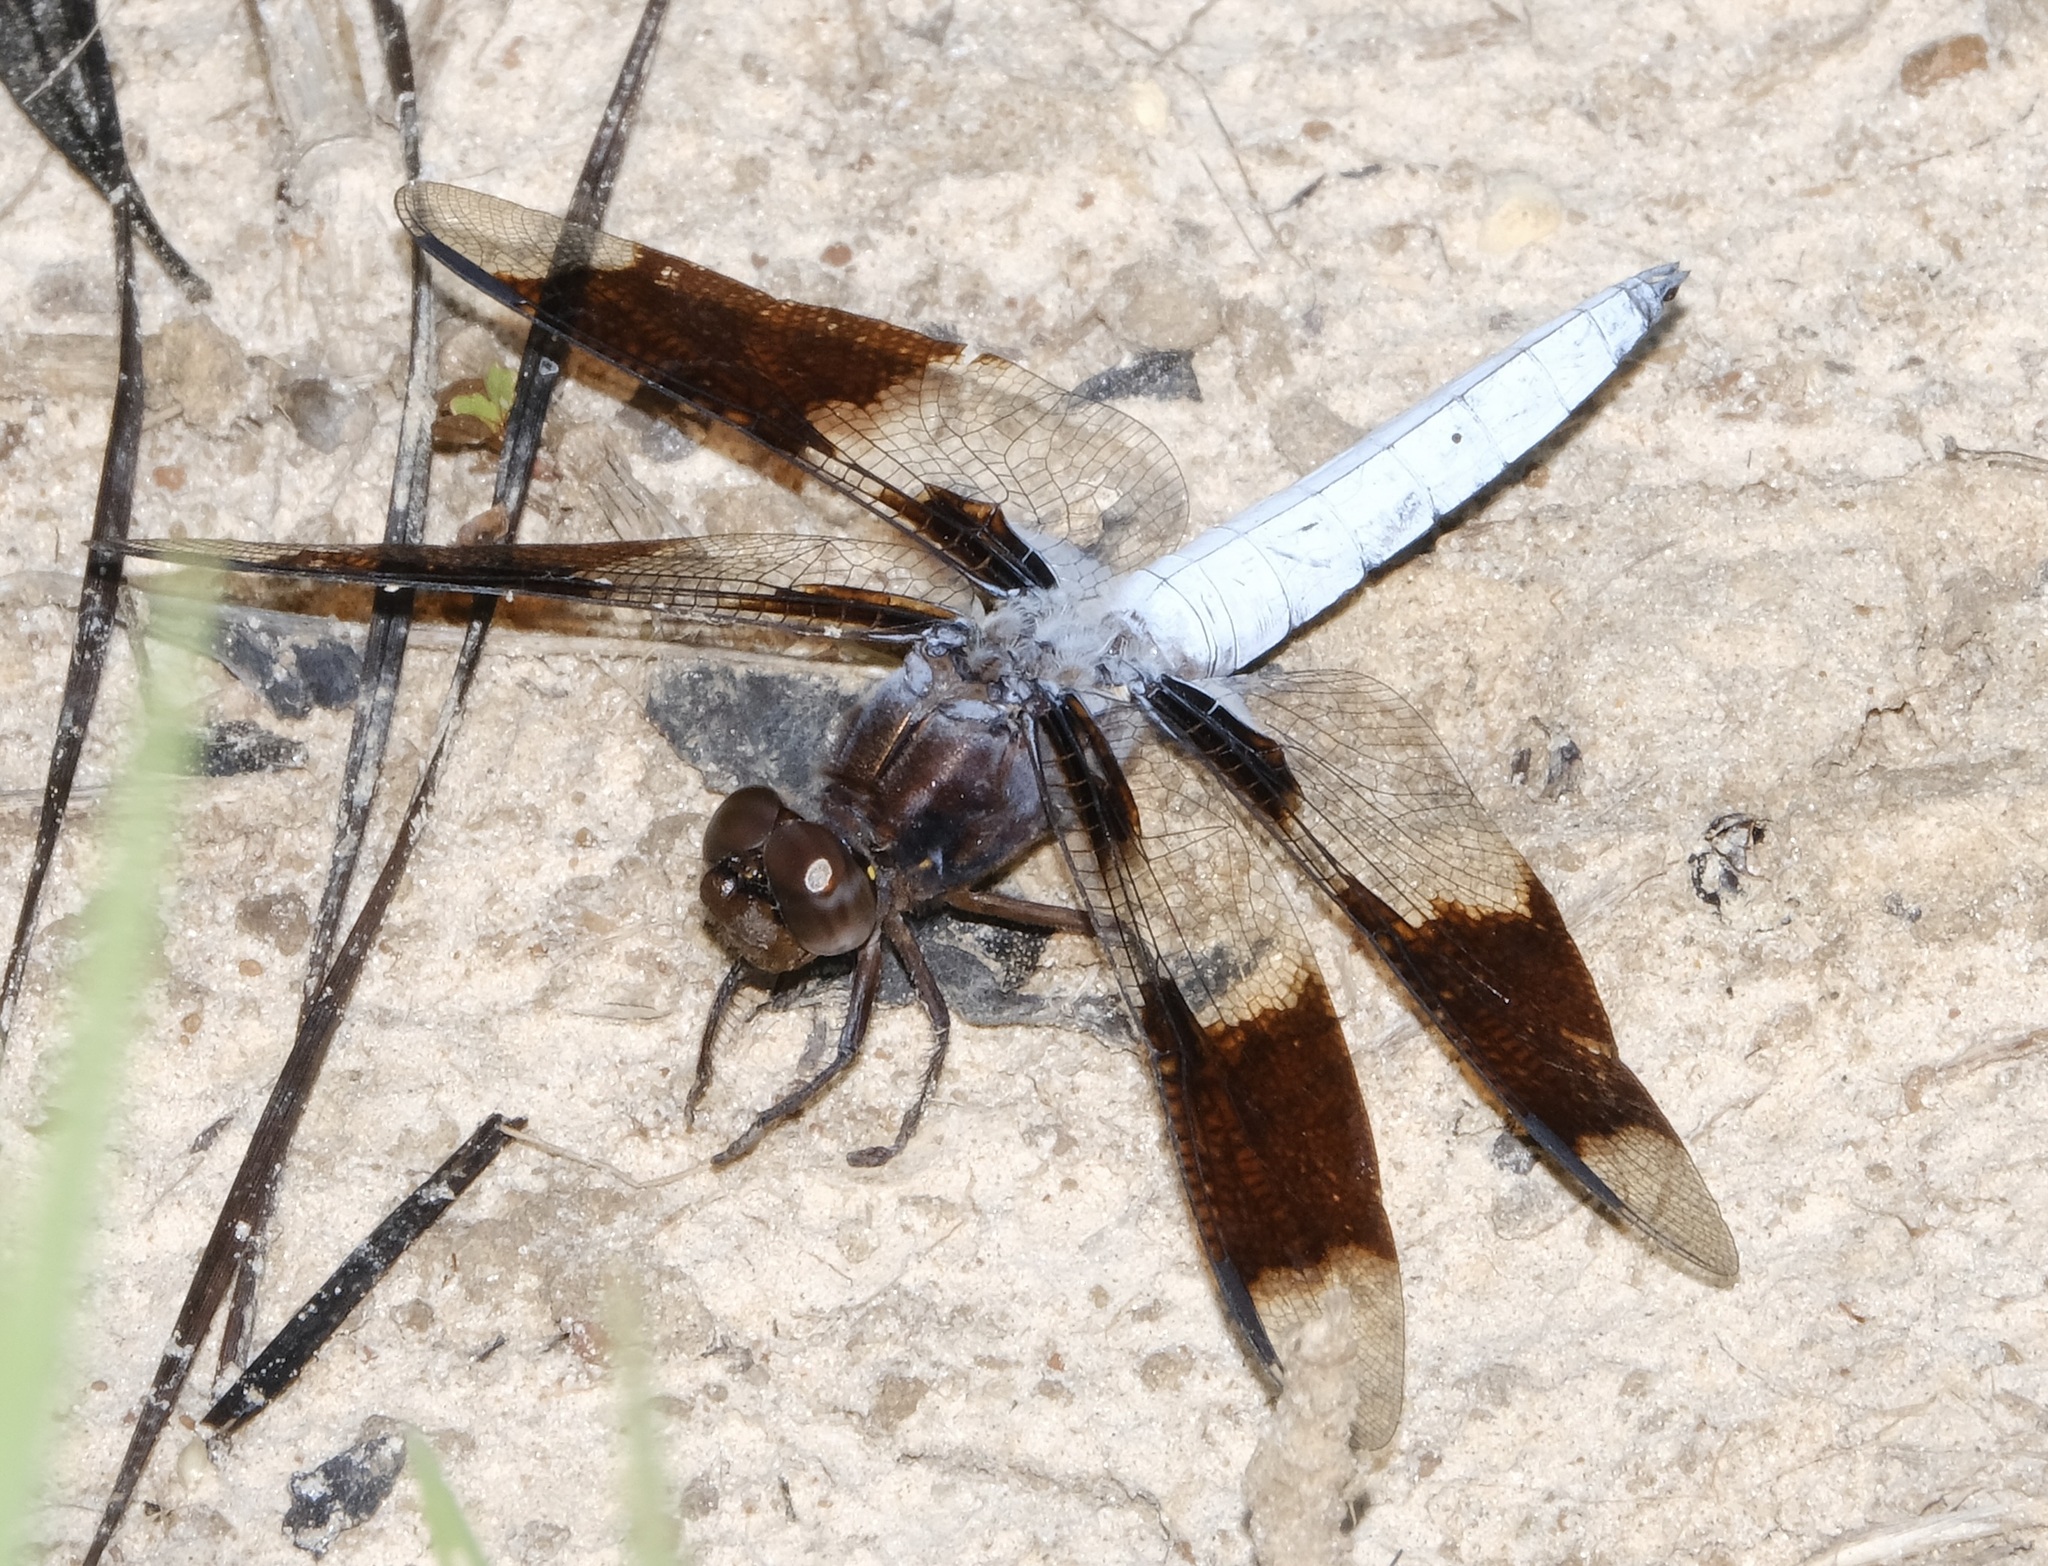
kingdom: Animalia
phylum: Arthropoda
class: Insecta
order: Odonata
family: Libellulidae
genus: Plathemis
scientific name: Plathemis lydia
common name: Common whitetail
